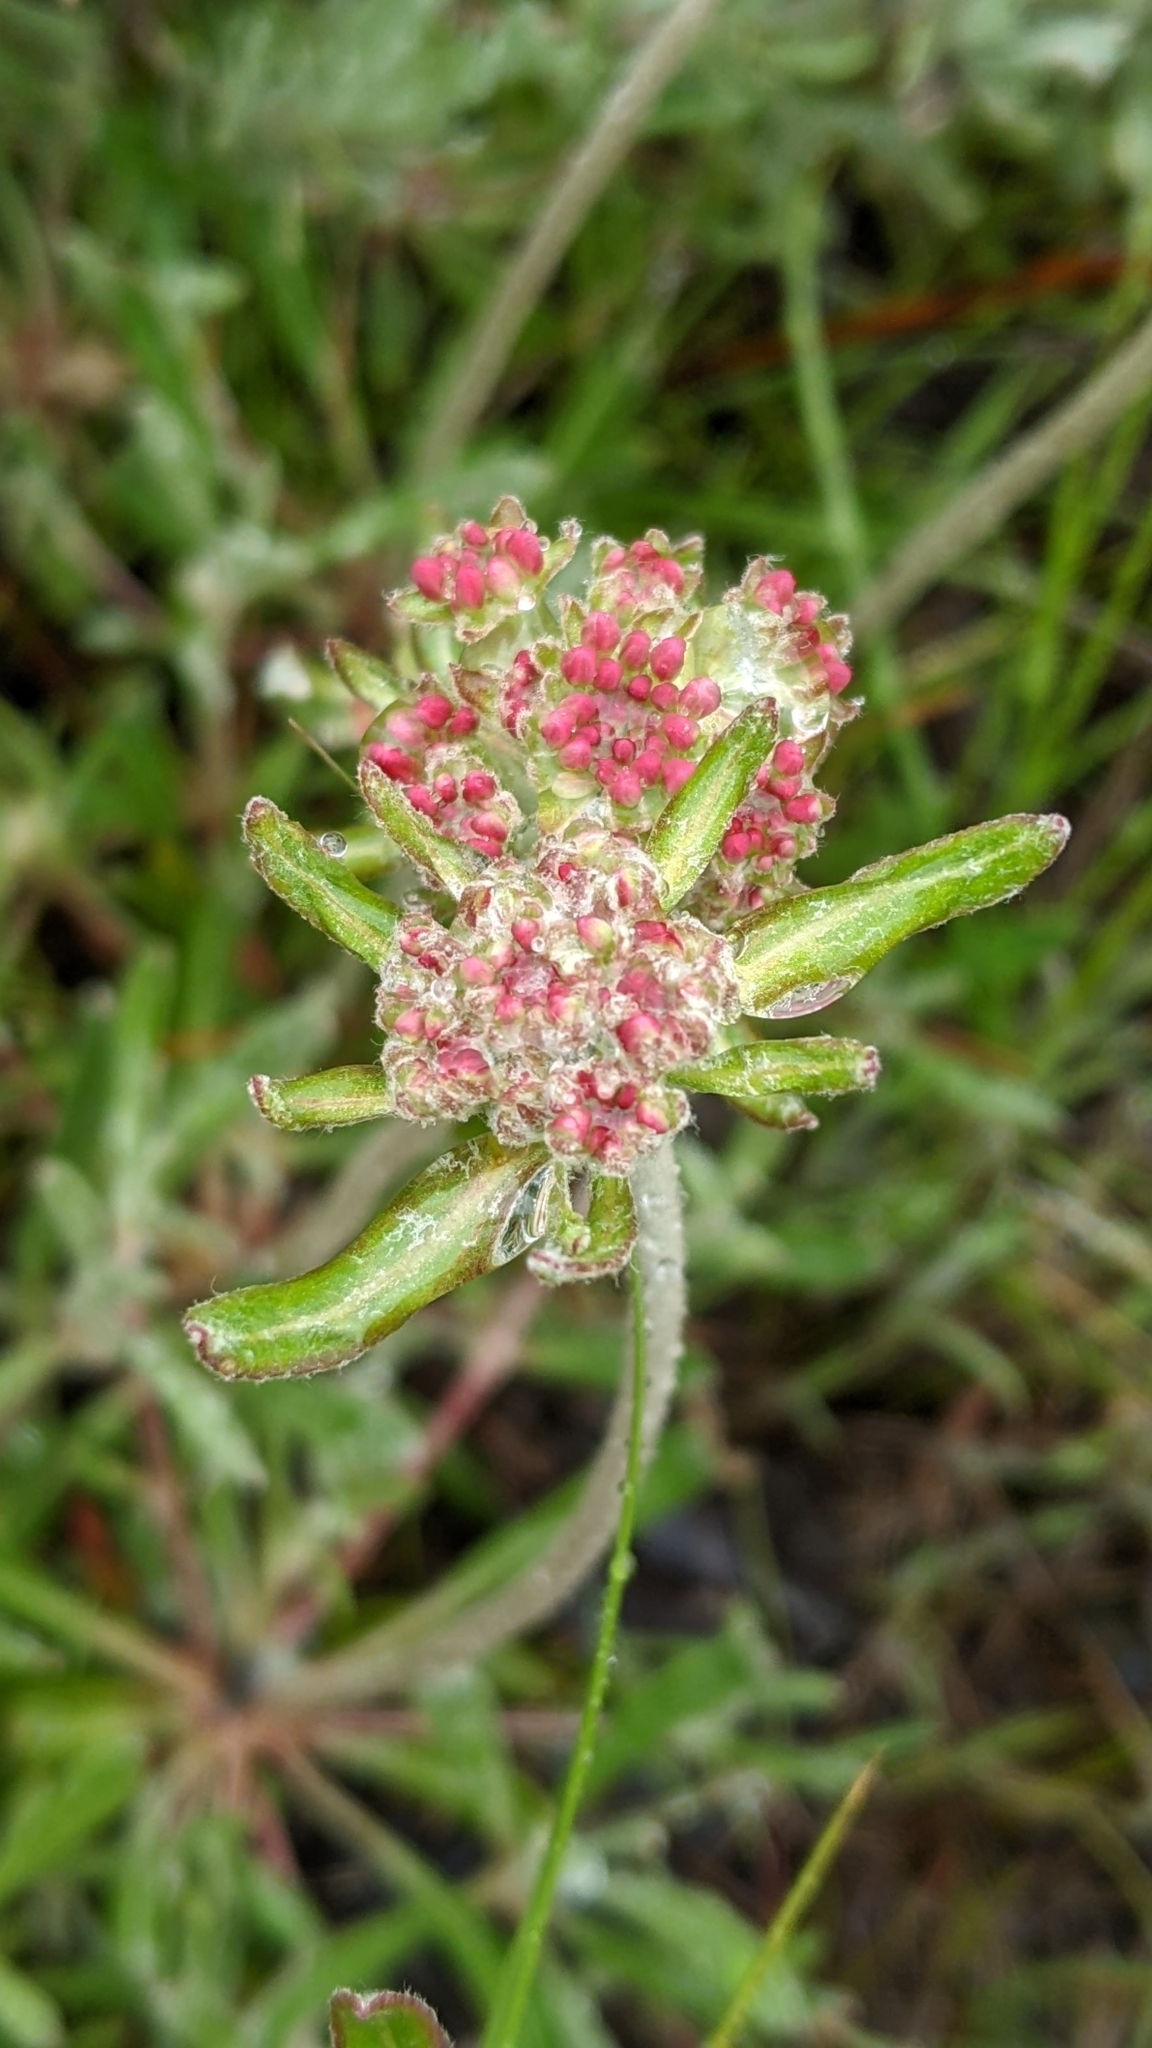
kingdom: Plantae
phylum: Tracheophyta
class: Magnoliopsida
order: Caryophyllales
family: Polygonaceae
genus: Eriogonum
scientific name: Eriogonum heracleoides
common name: Wyeth's buckwheat
